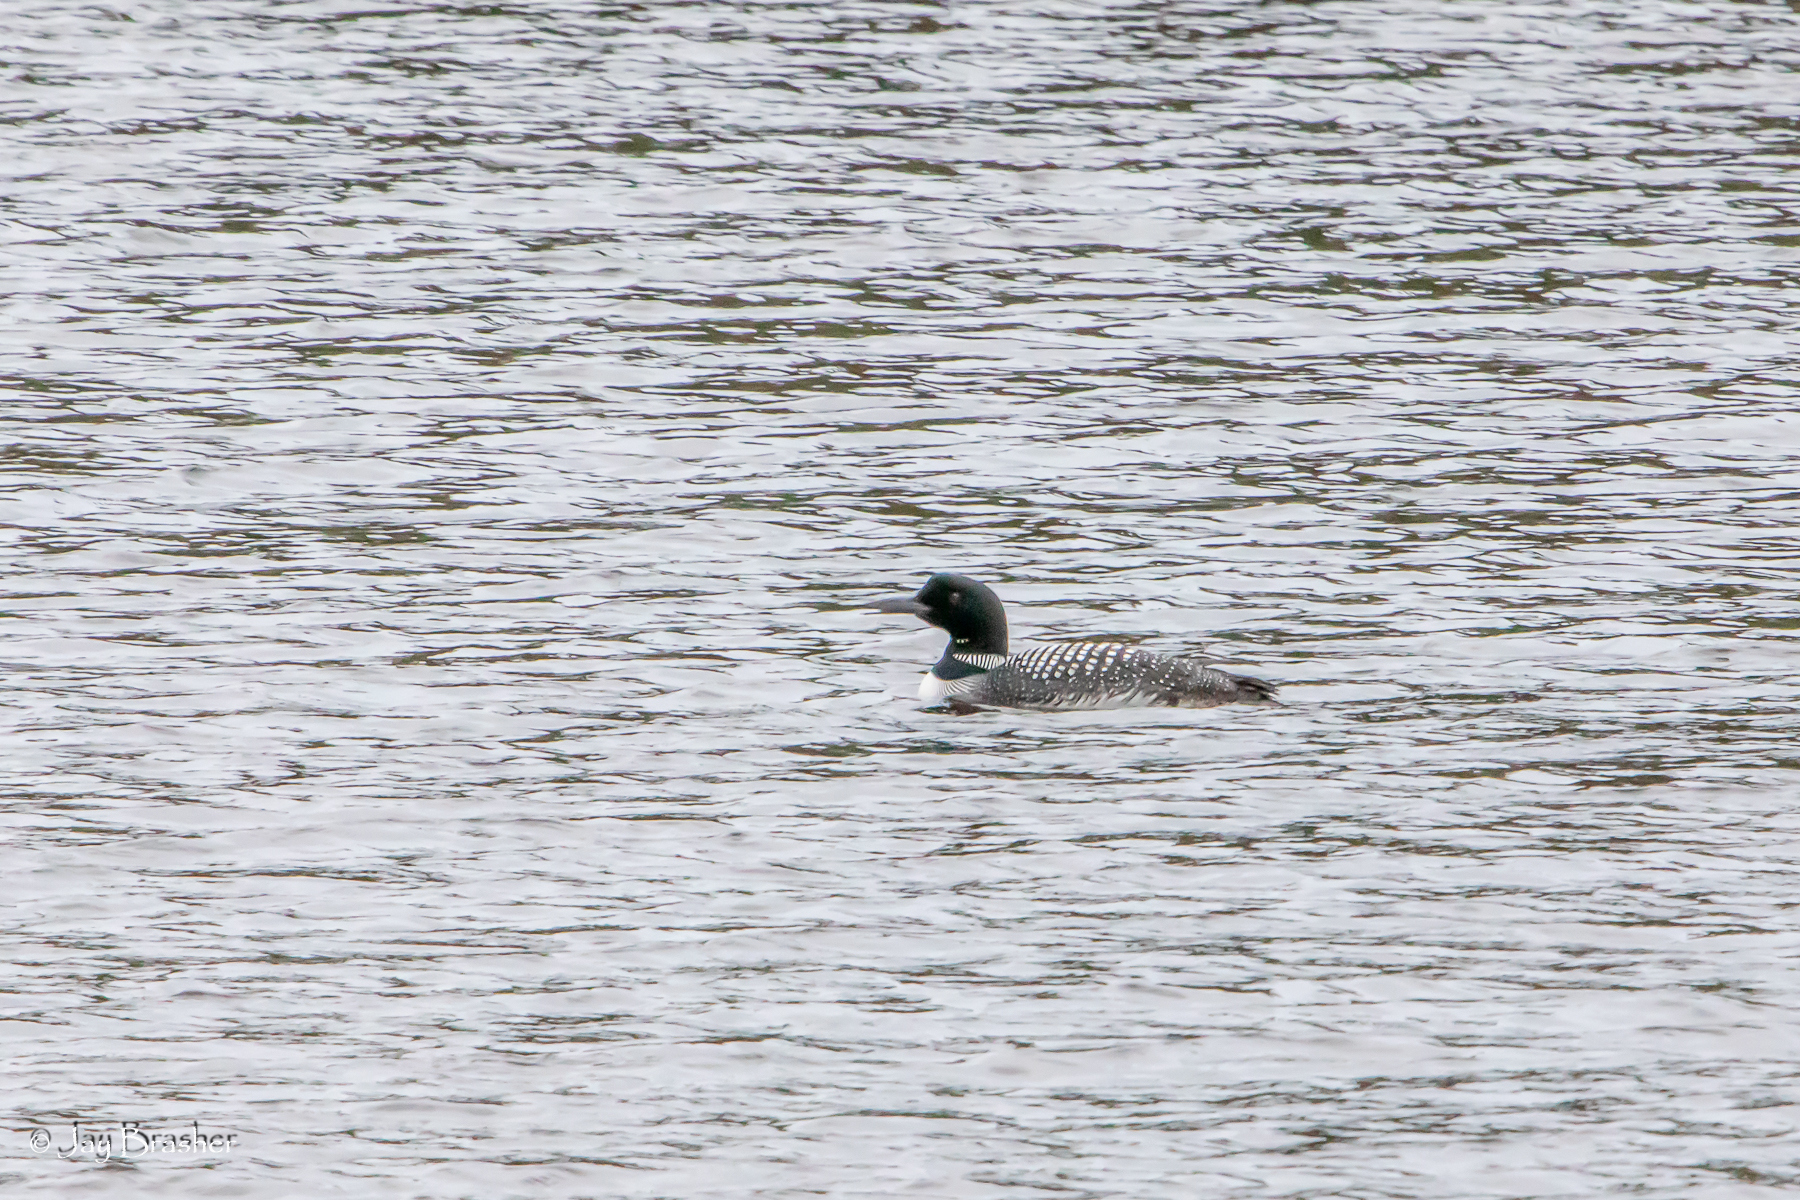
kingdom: Animalia
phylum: Chordata
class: Aves
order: Gaviiformes
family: Gaviidae
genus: Gavia
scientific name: Gavia immer
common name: Common loon
